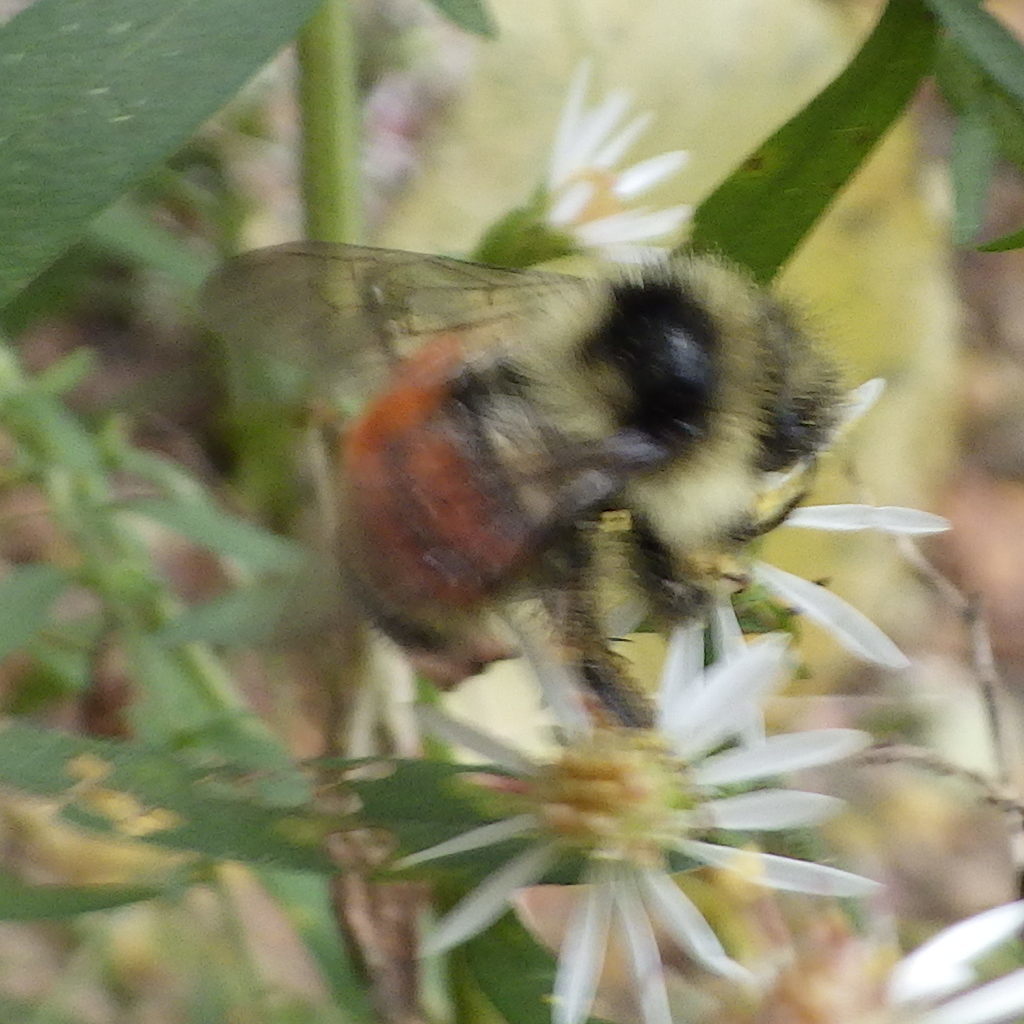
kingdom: Animalia
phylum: Arthropoda
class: Insecta
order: Hymenoptera
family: Apidae
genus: Bombus
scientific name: Bombus ternarius
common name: Tri-colored bumble bee
